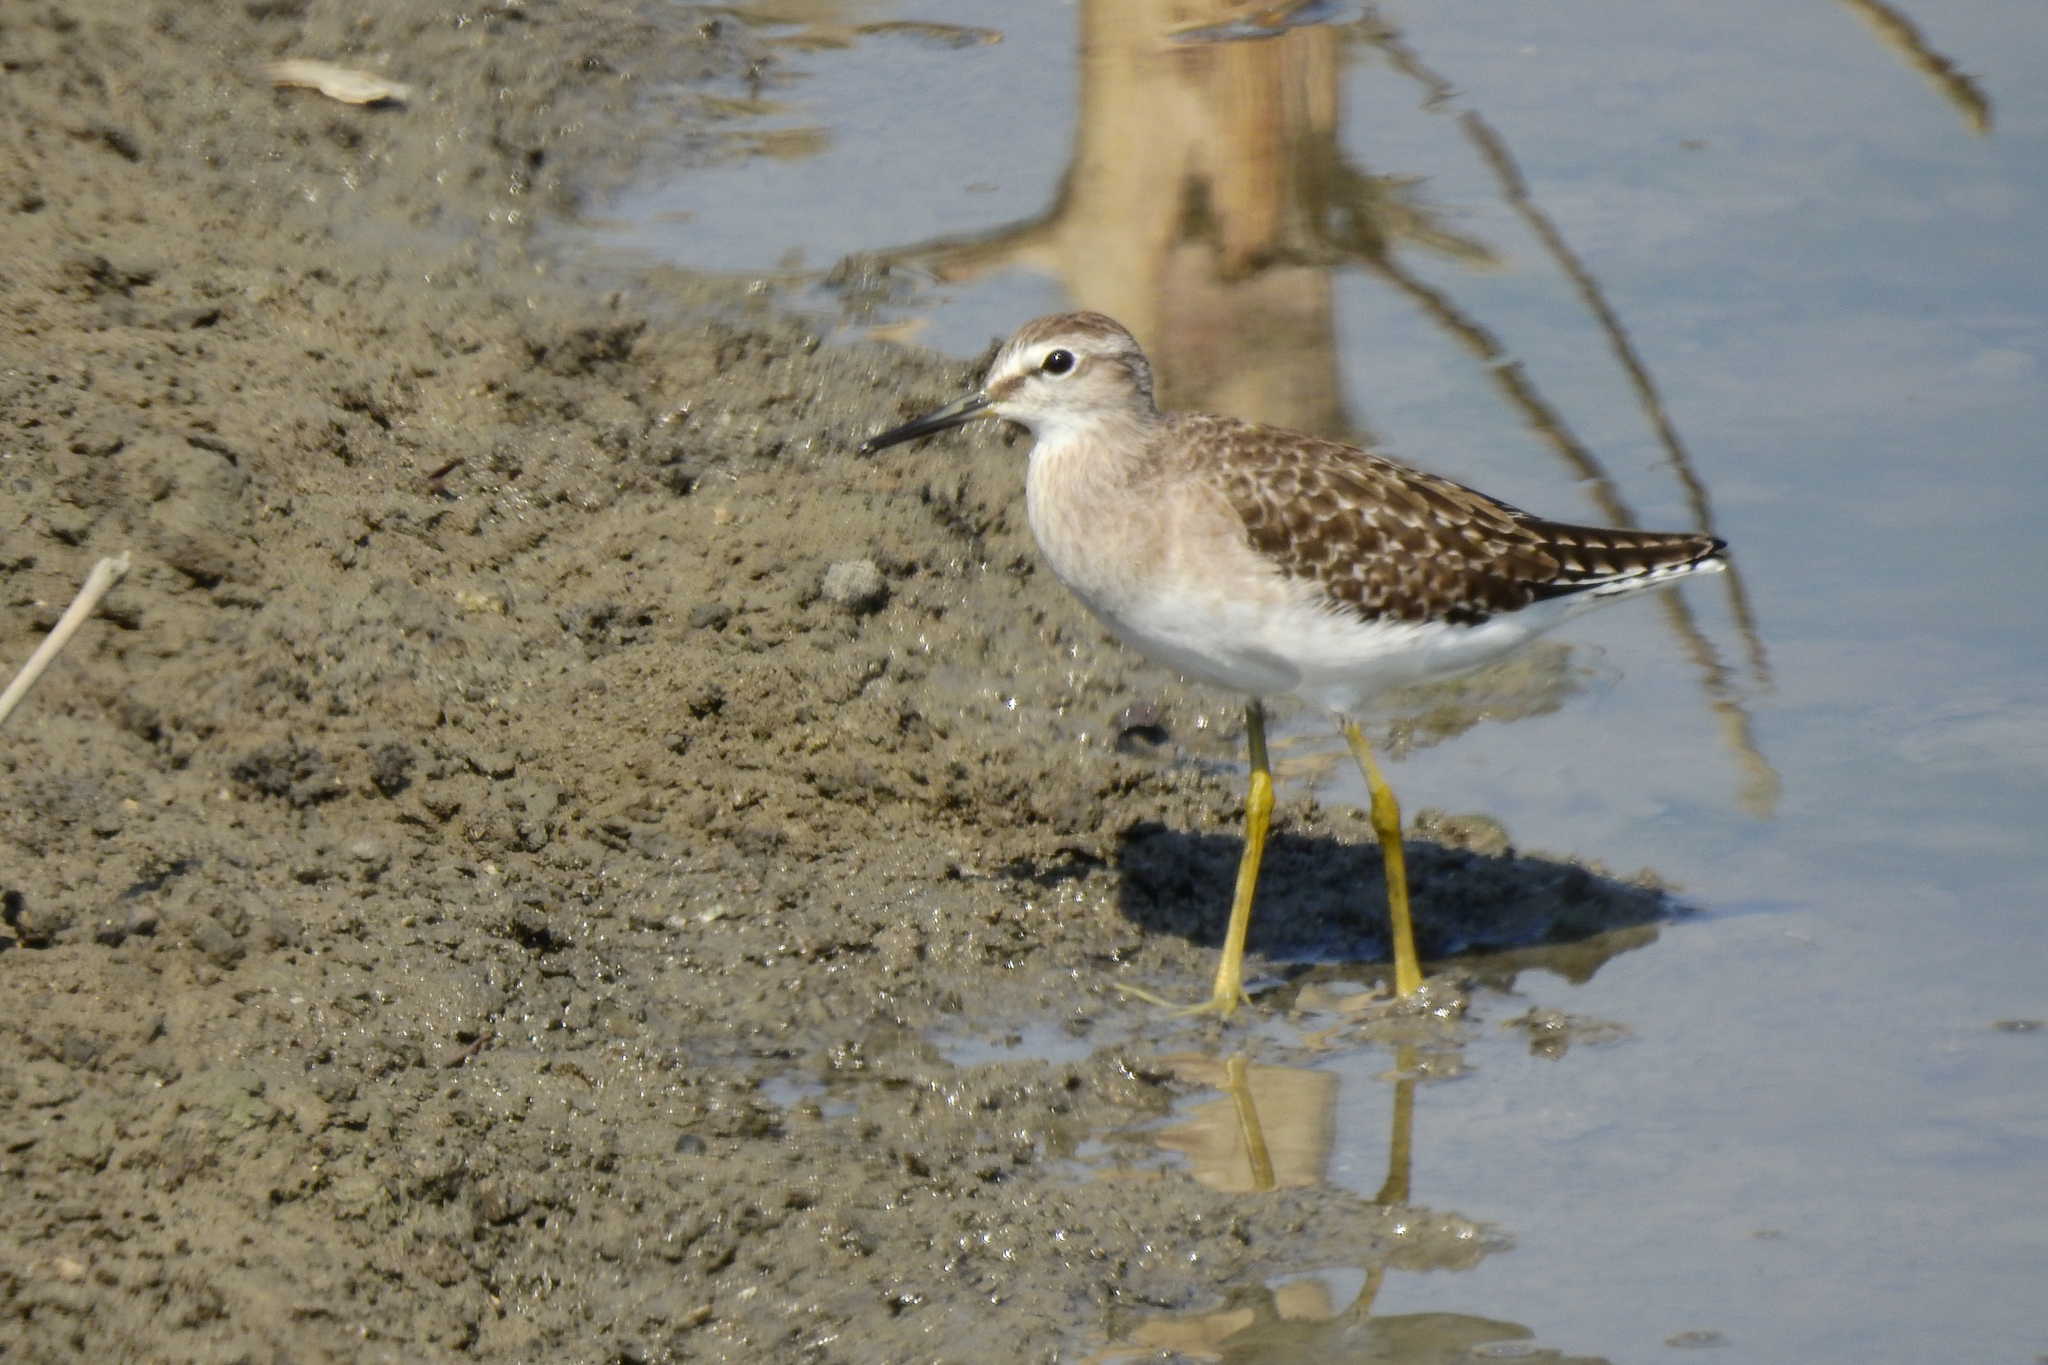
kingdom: Animalia
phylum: Chordata
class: Aves
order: Charadriiformes
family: Scolopacidae
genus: Tringa
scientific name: Tringa glareola
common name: Wood sandpiper
